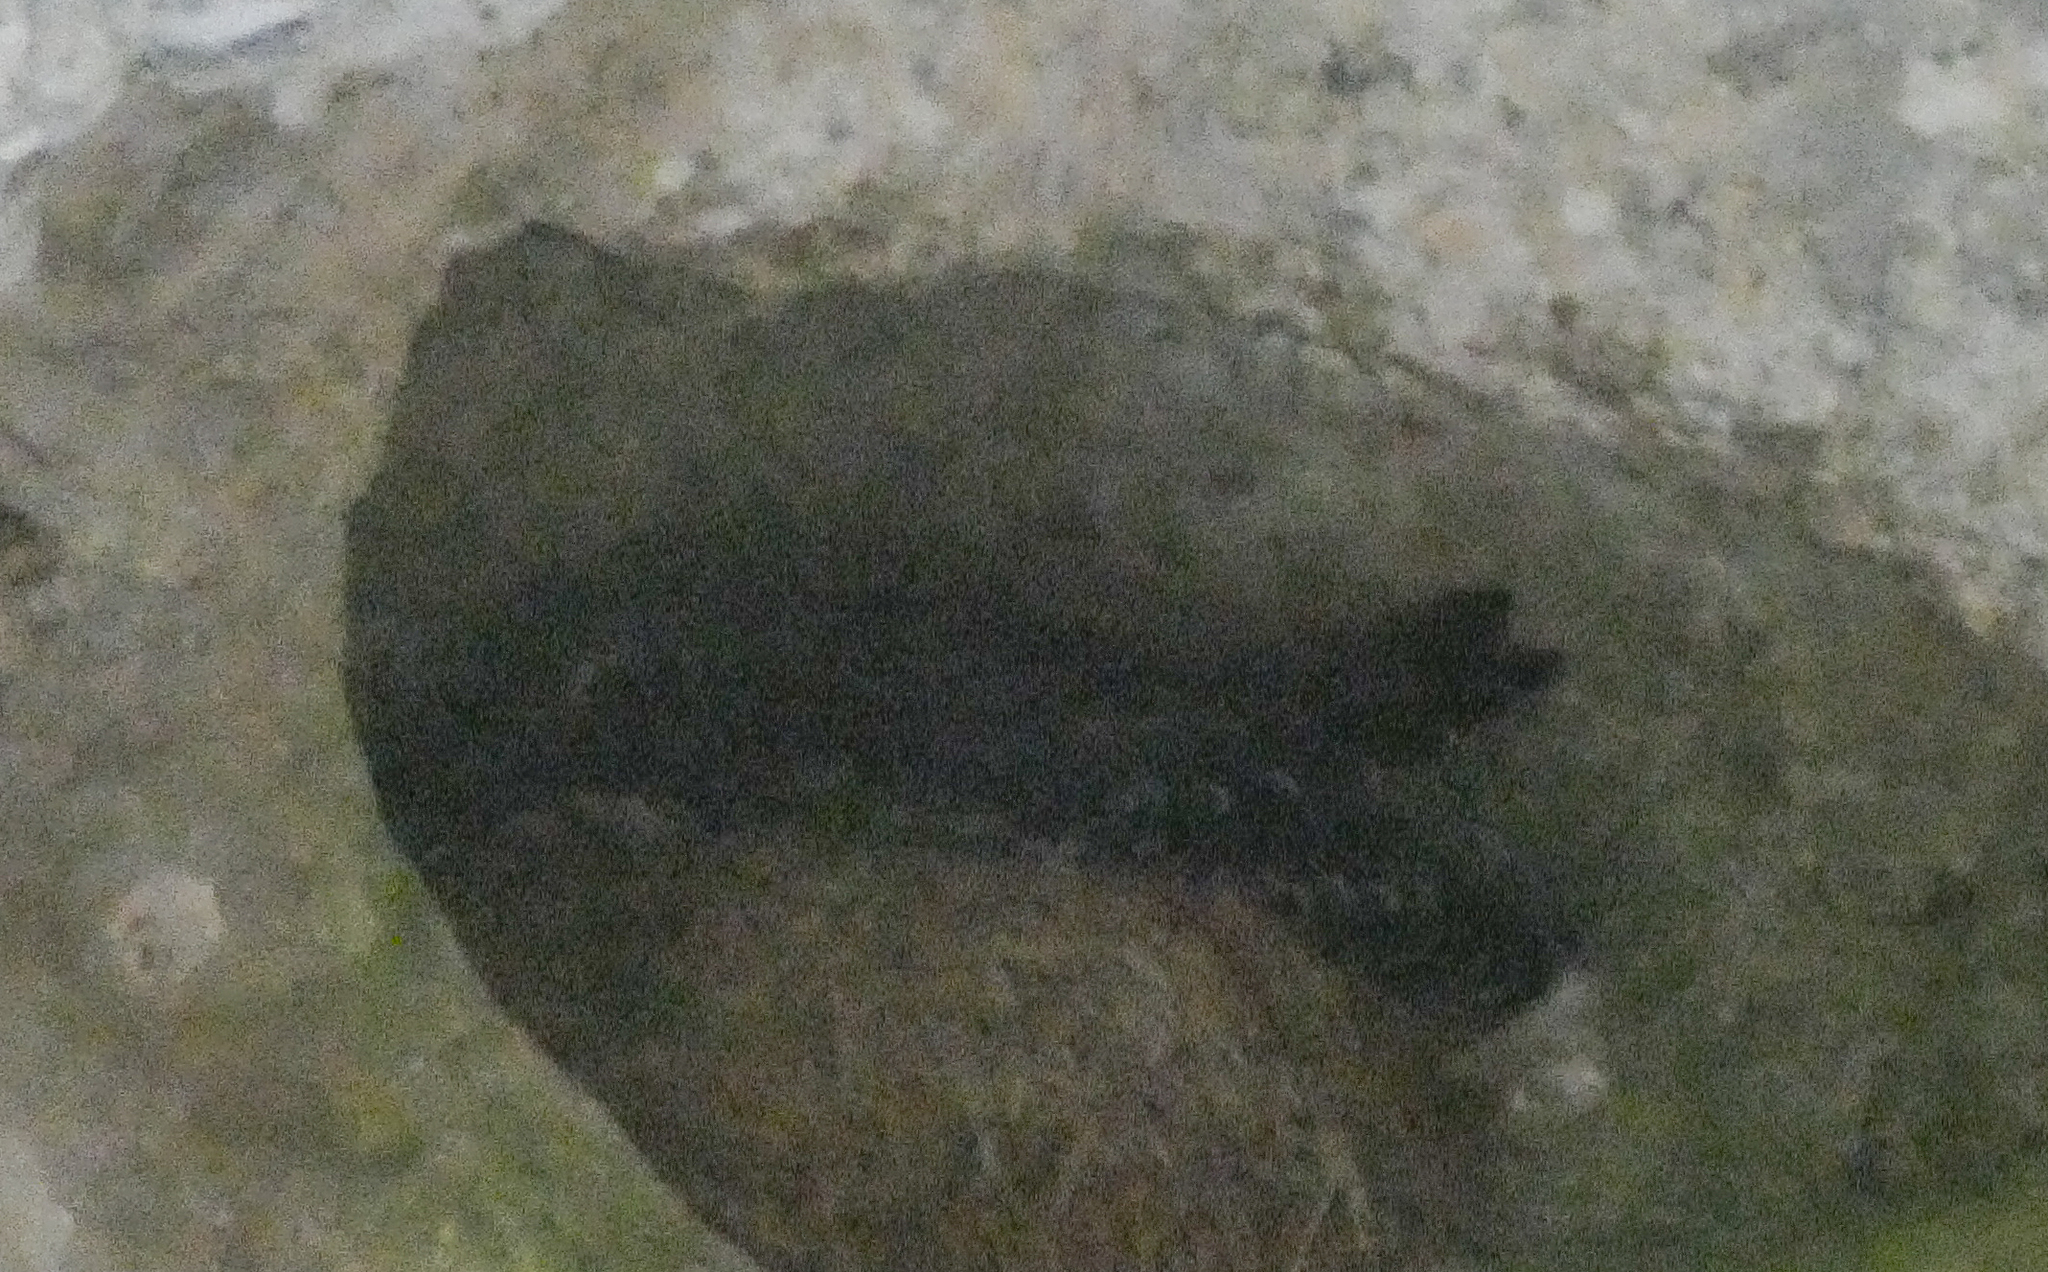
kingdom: Animalia
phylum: Chordata
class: Aves
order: Apodiformes
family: Apodidae
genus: Cypseloides
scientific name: Cypseloides niger
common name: Black swift
